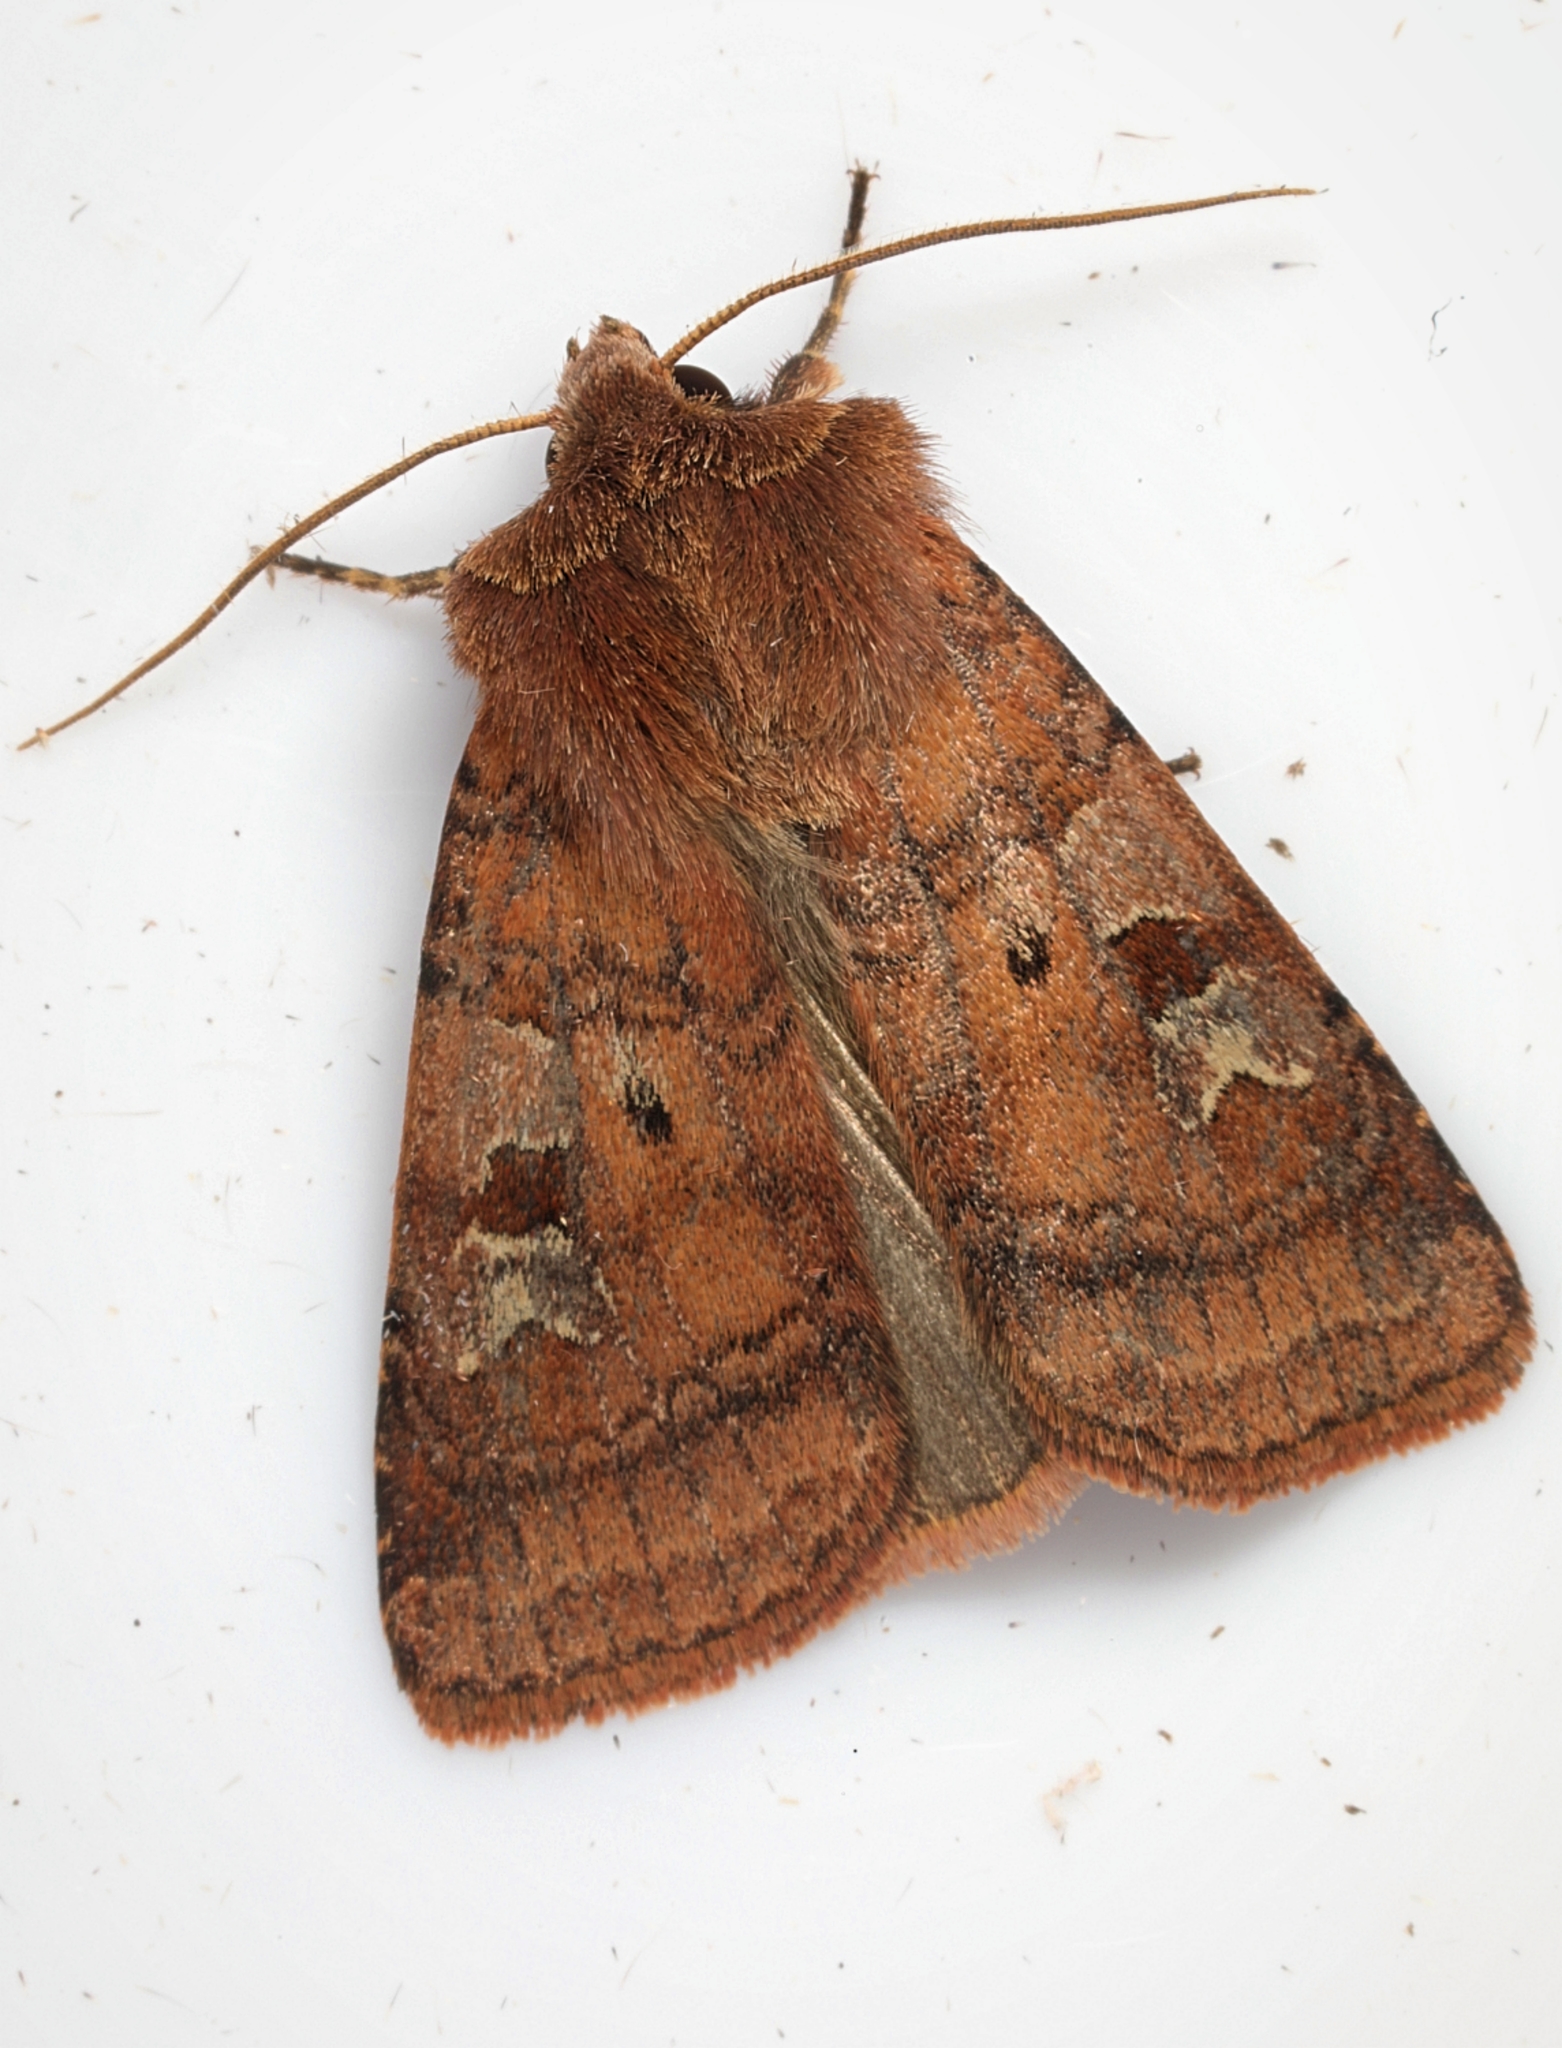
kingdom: Animalia
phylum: Arthropoda
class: Insecta
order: Lepidoptera
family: Noctuidae
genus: Diarsia
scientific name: Diarsia rubi
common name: Small square-spot
